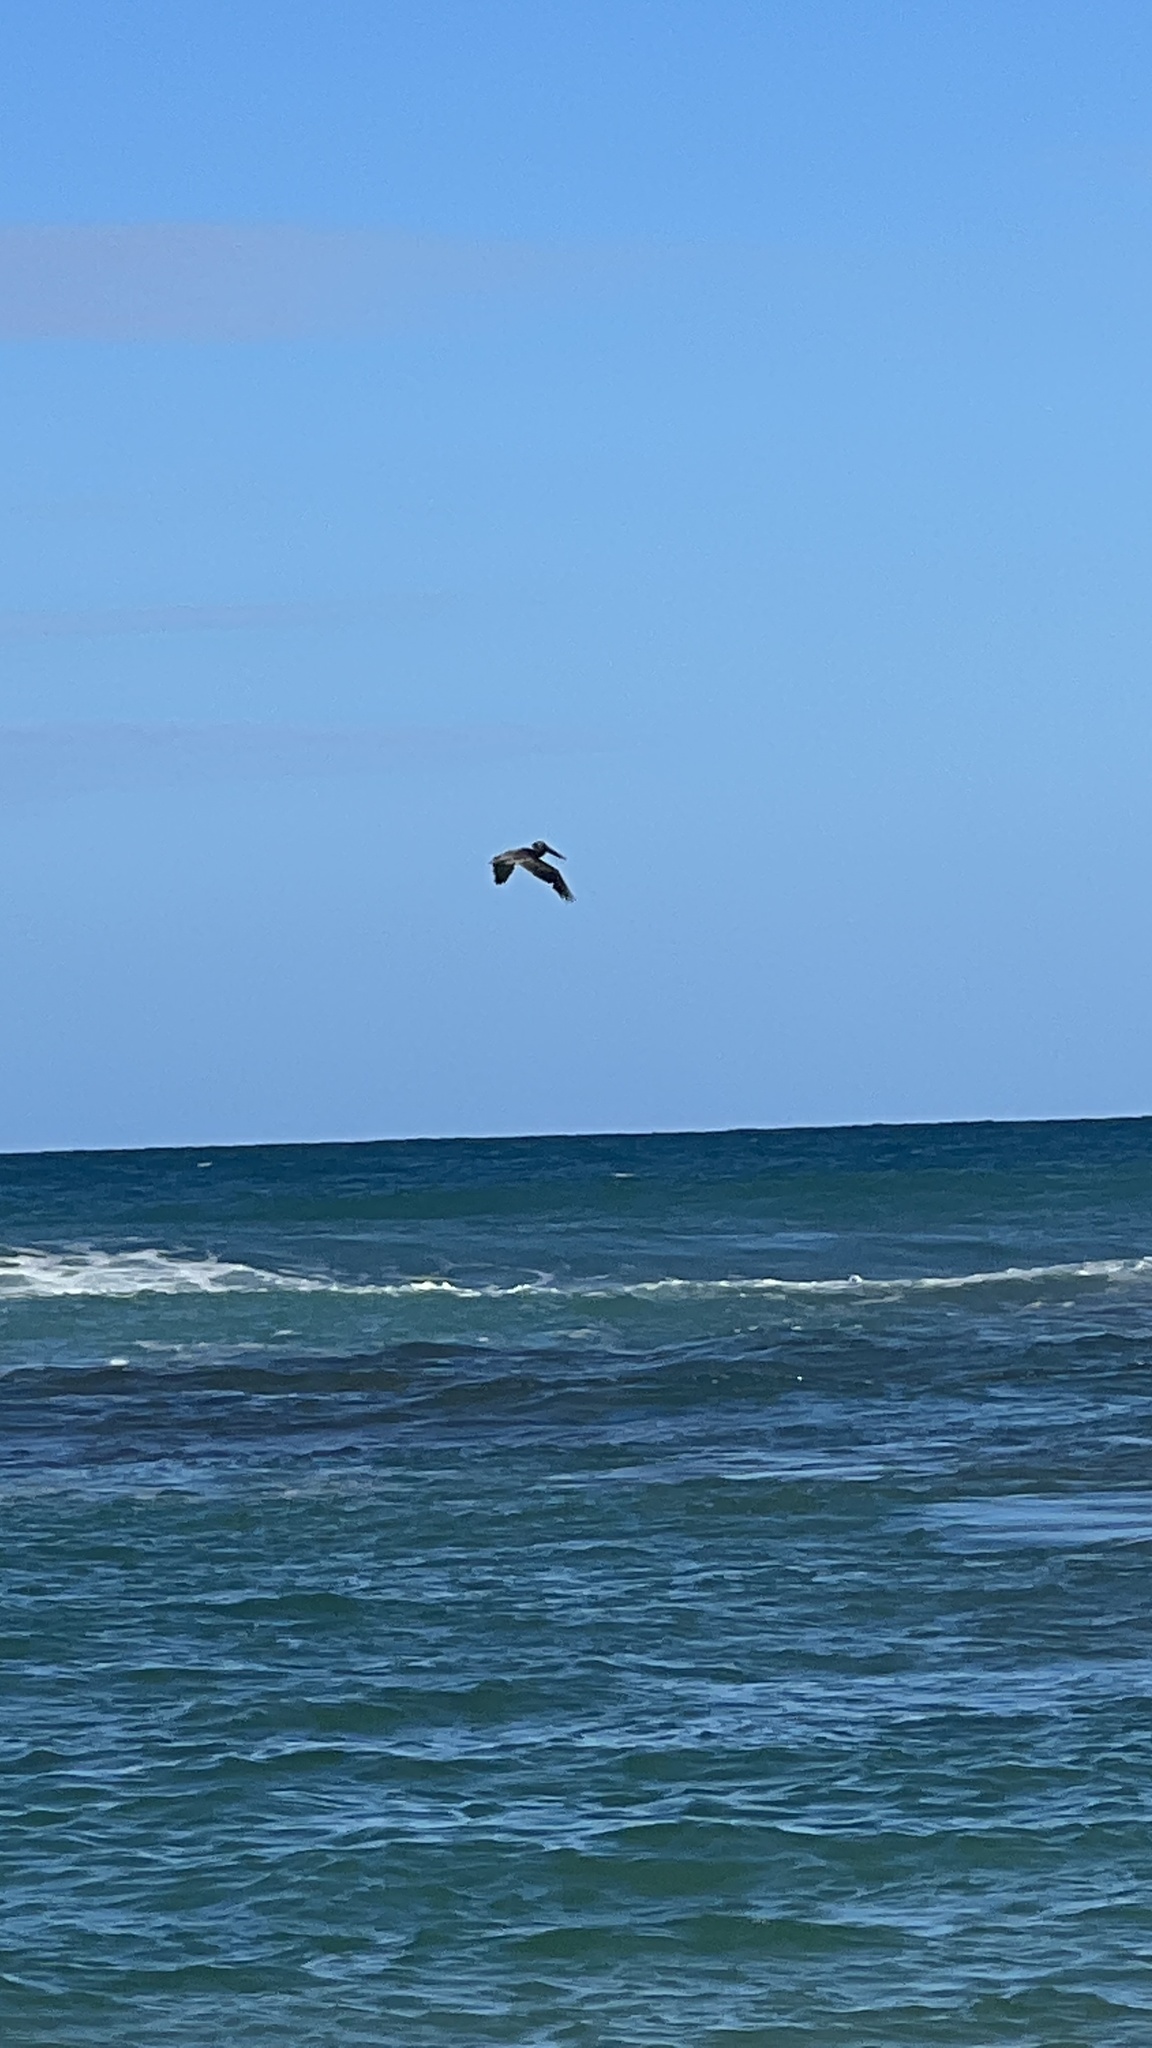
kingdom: Animalia
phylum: Chordata
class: Aves
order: Pelecaniformes
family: Pelecanidae
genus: Pelecanus
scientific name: Pelecanus occidentalis
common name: Brown pelican
